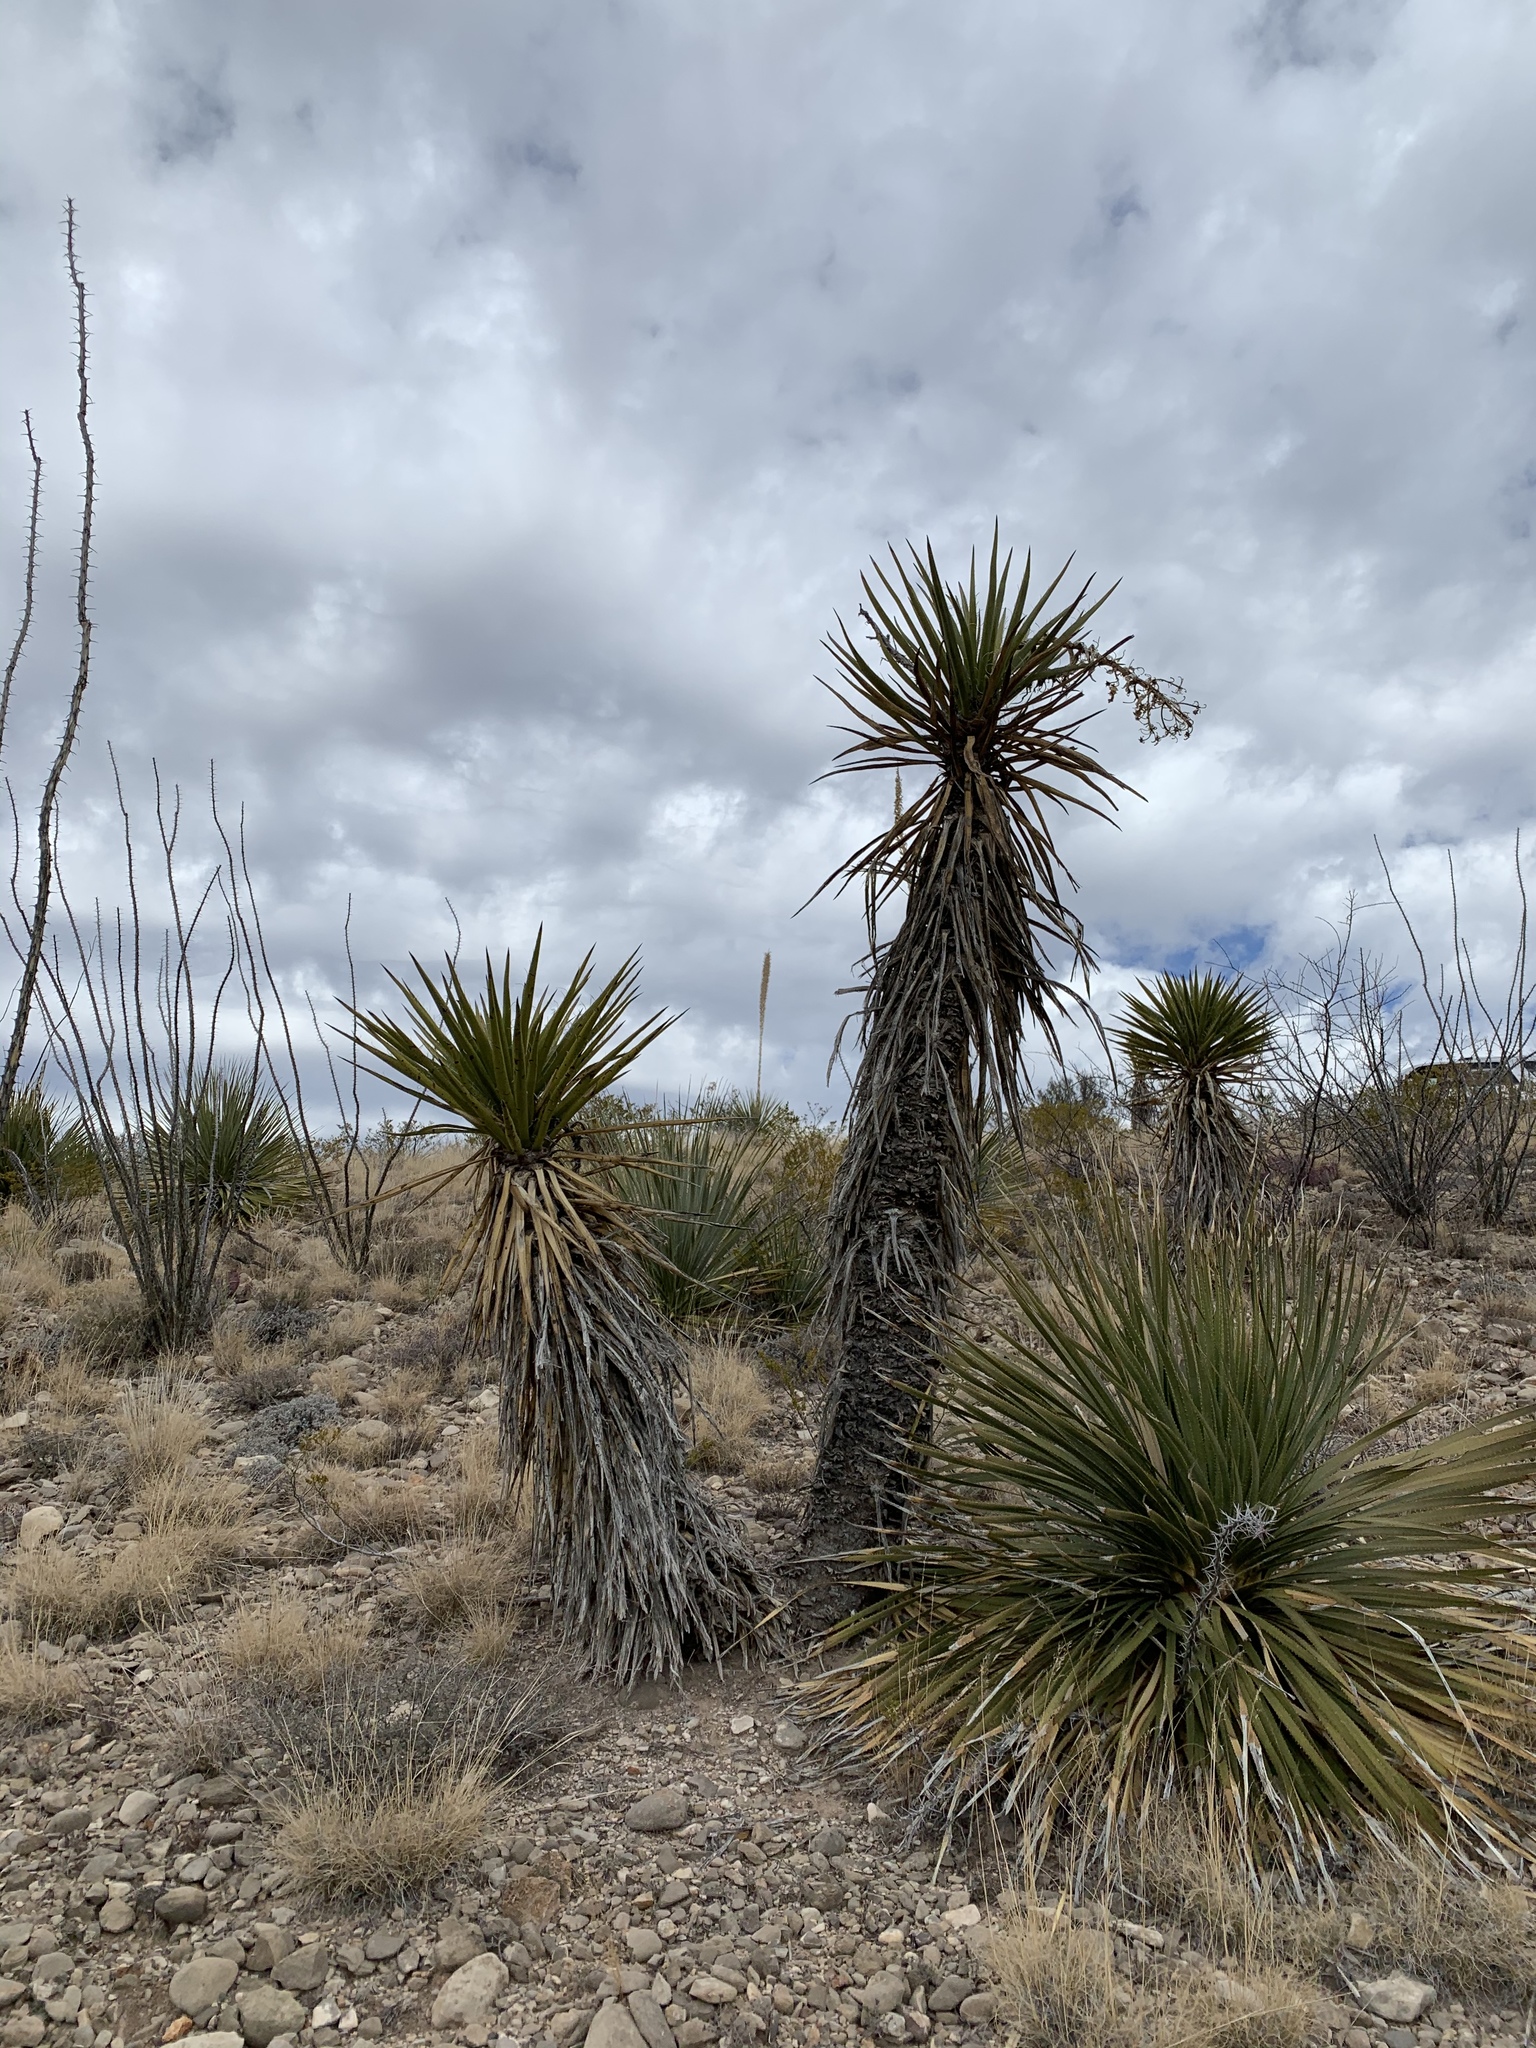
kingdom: Plantae
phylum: Tracheophyta
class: Liliopsida
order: Asparagales
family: Asparagaceae
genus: Yucca
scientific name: Yucca treculiana
